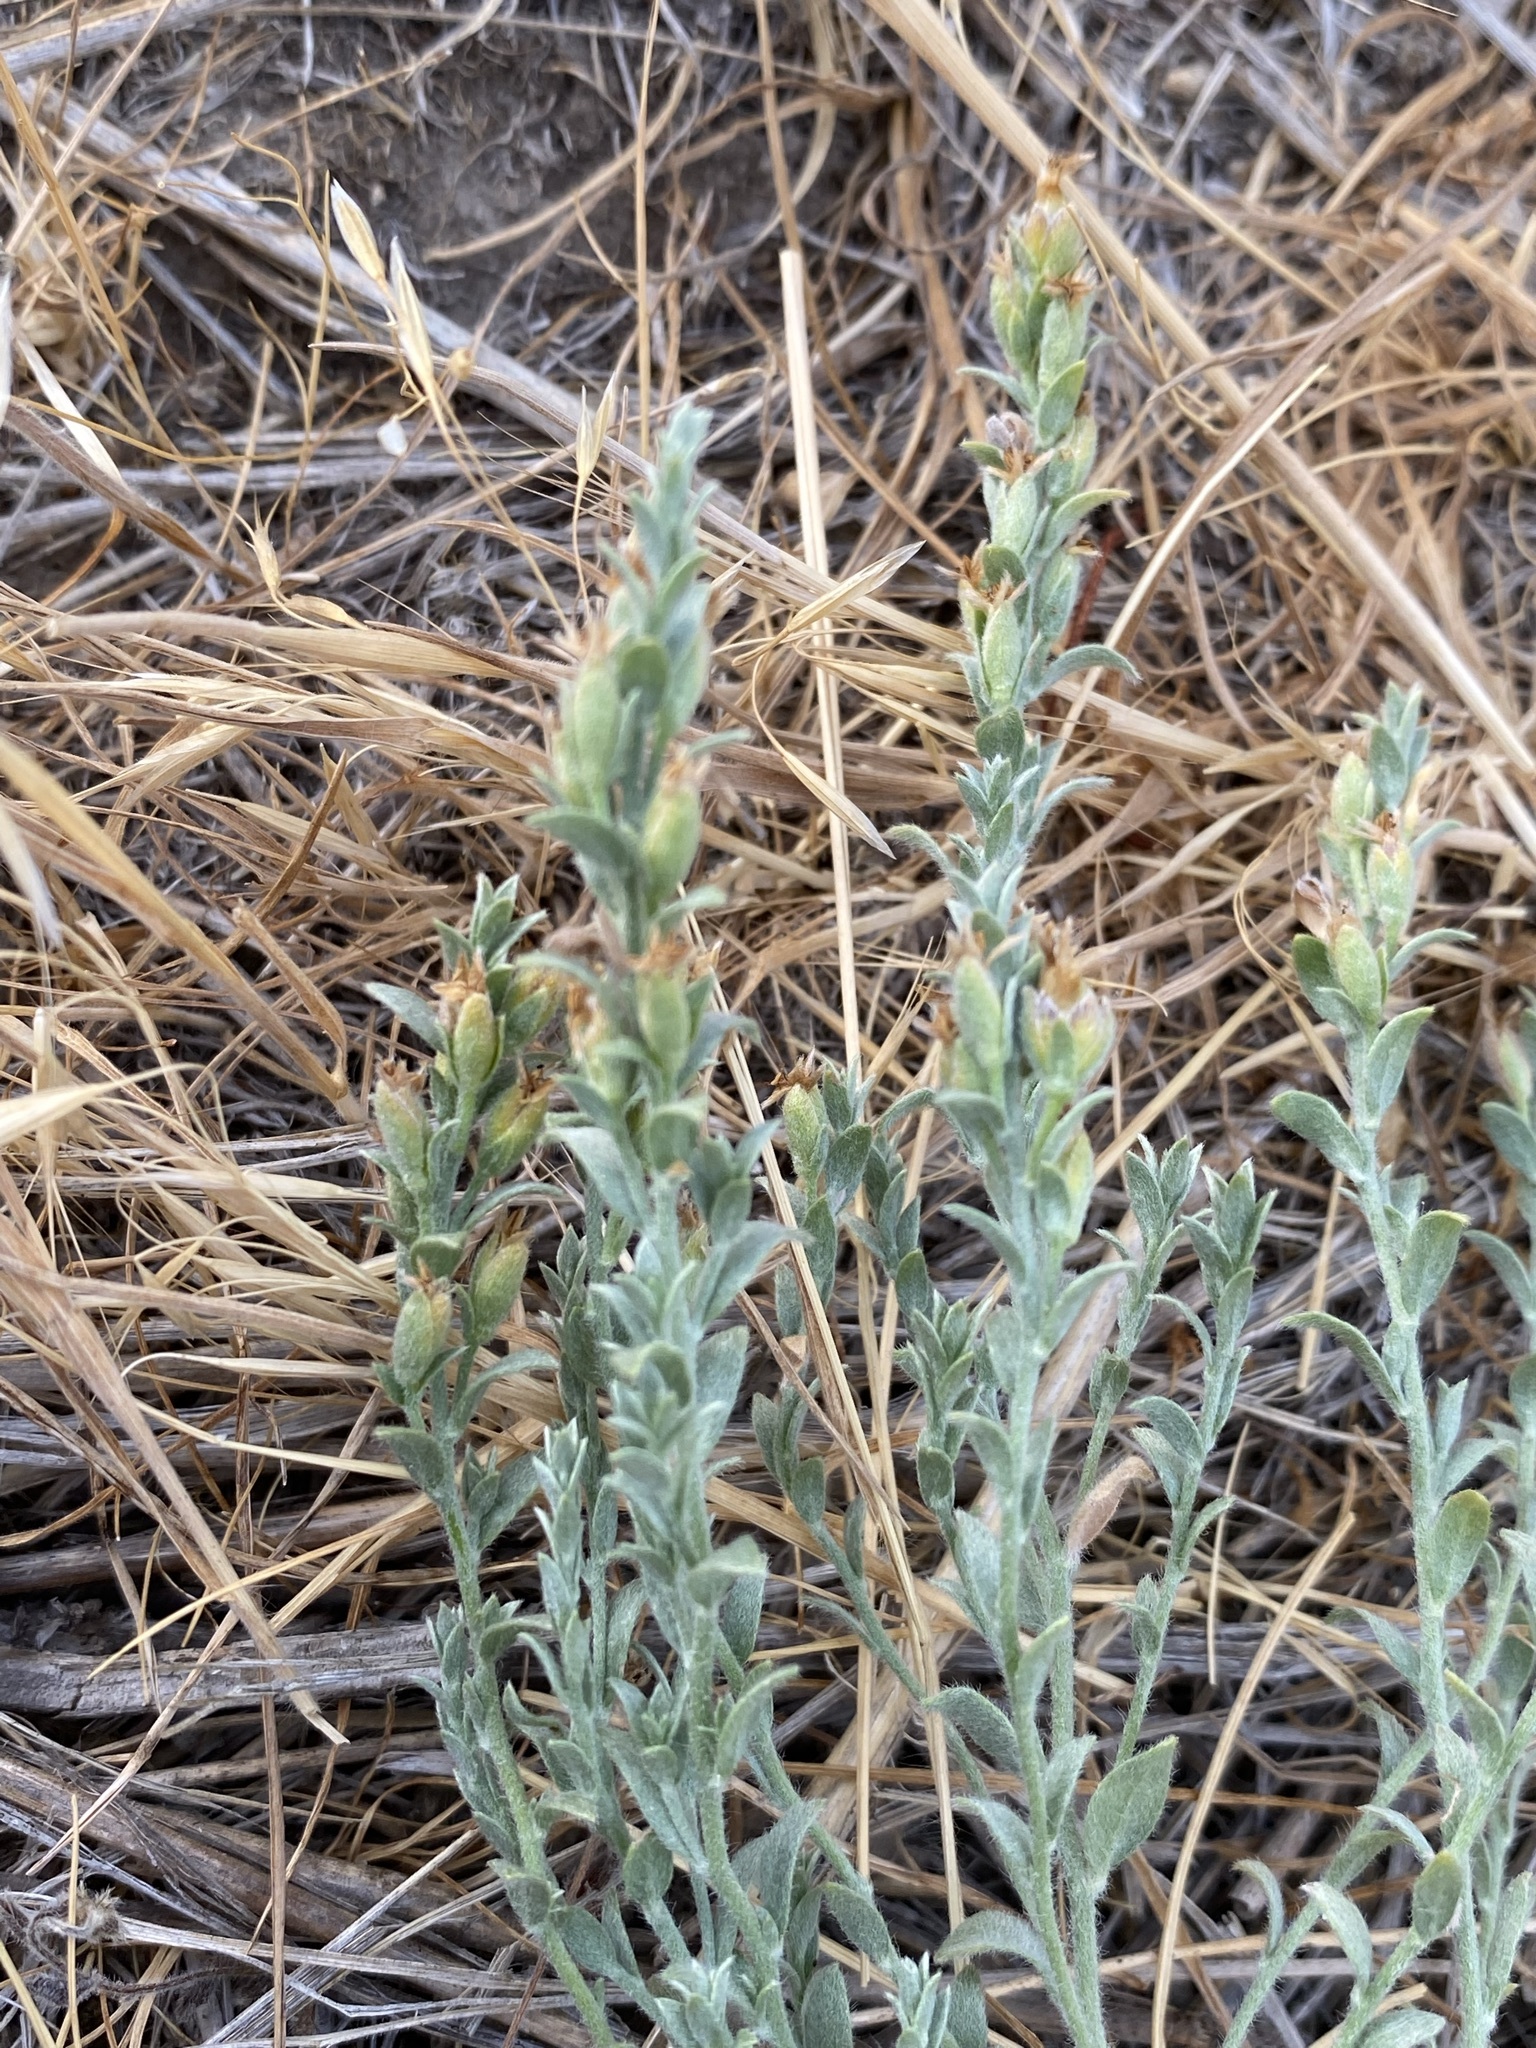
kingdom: Plantae
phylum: Tracheophyta
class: Magnoliopsida
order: Solanales
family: Convolvulaceae
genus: Cressa
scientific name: Cressa truxillensis
